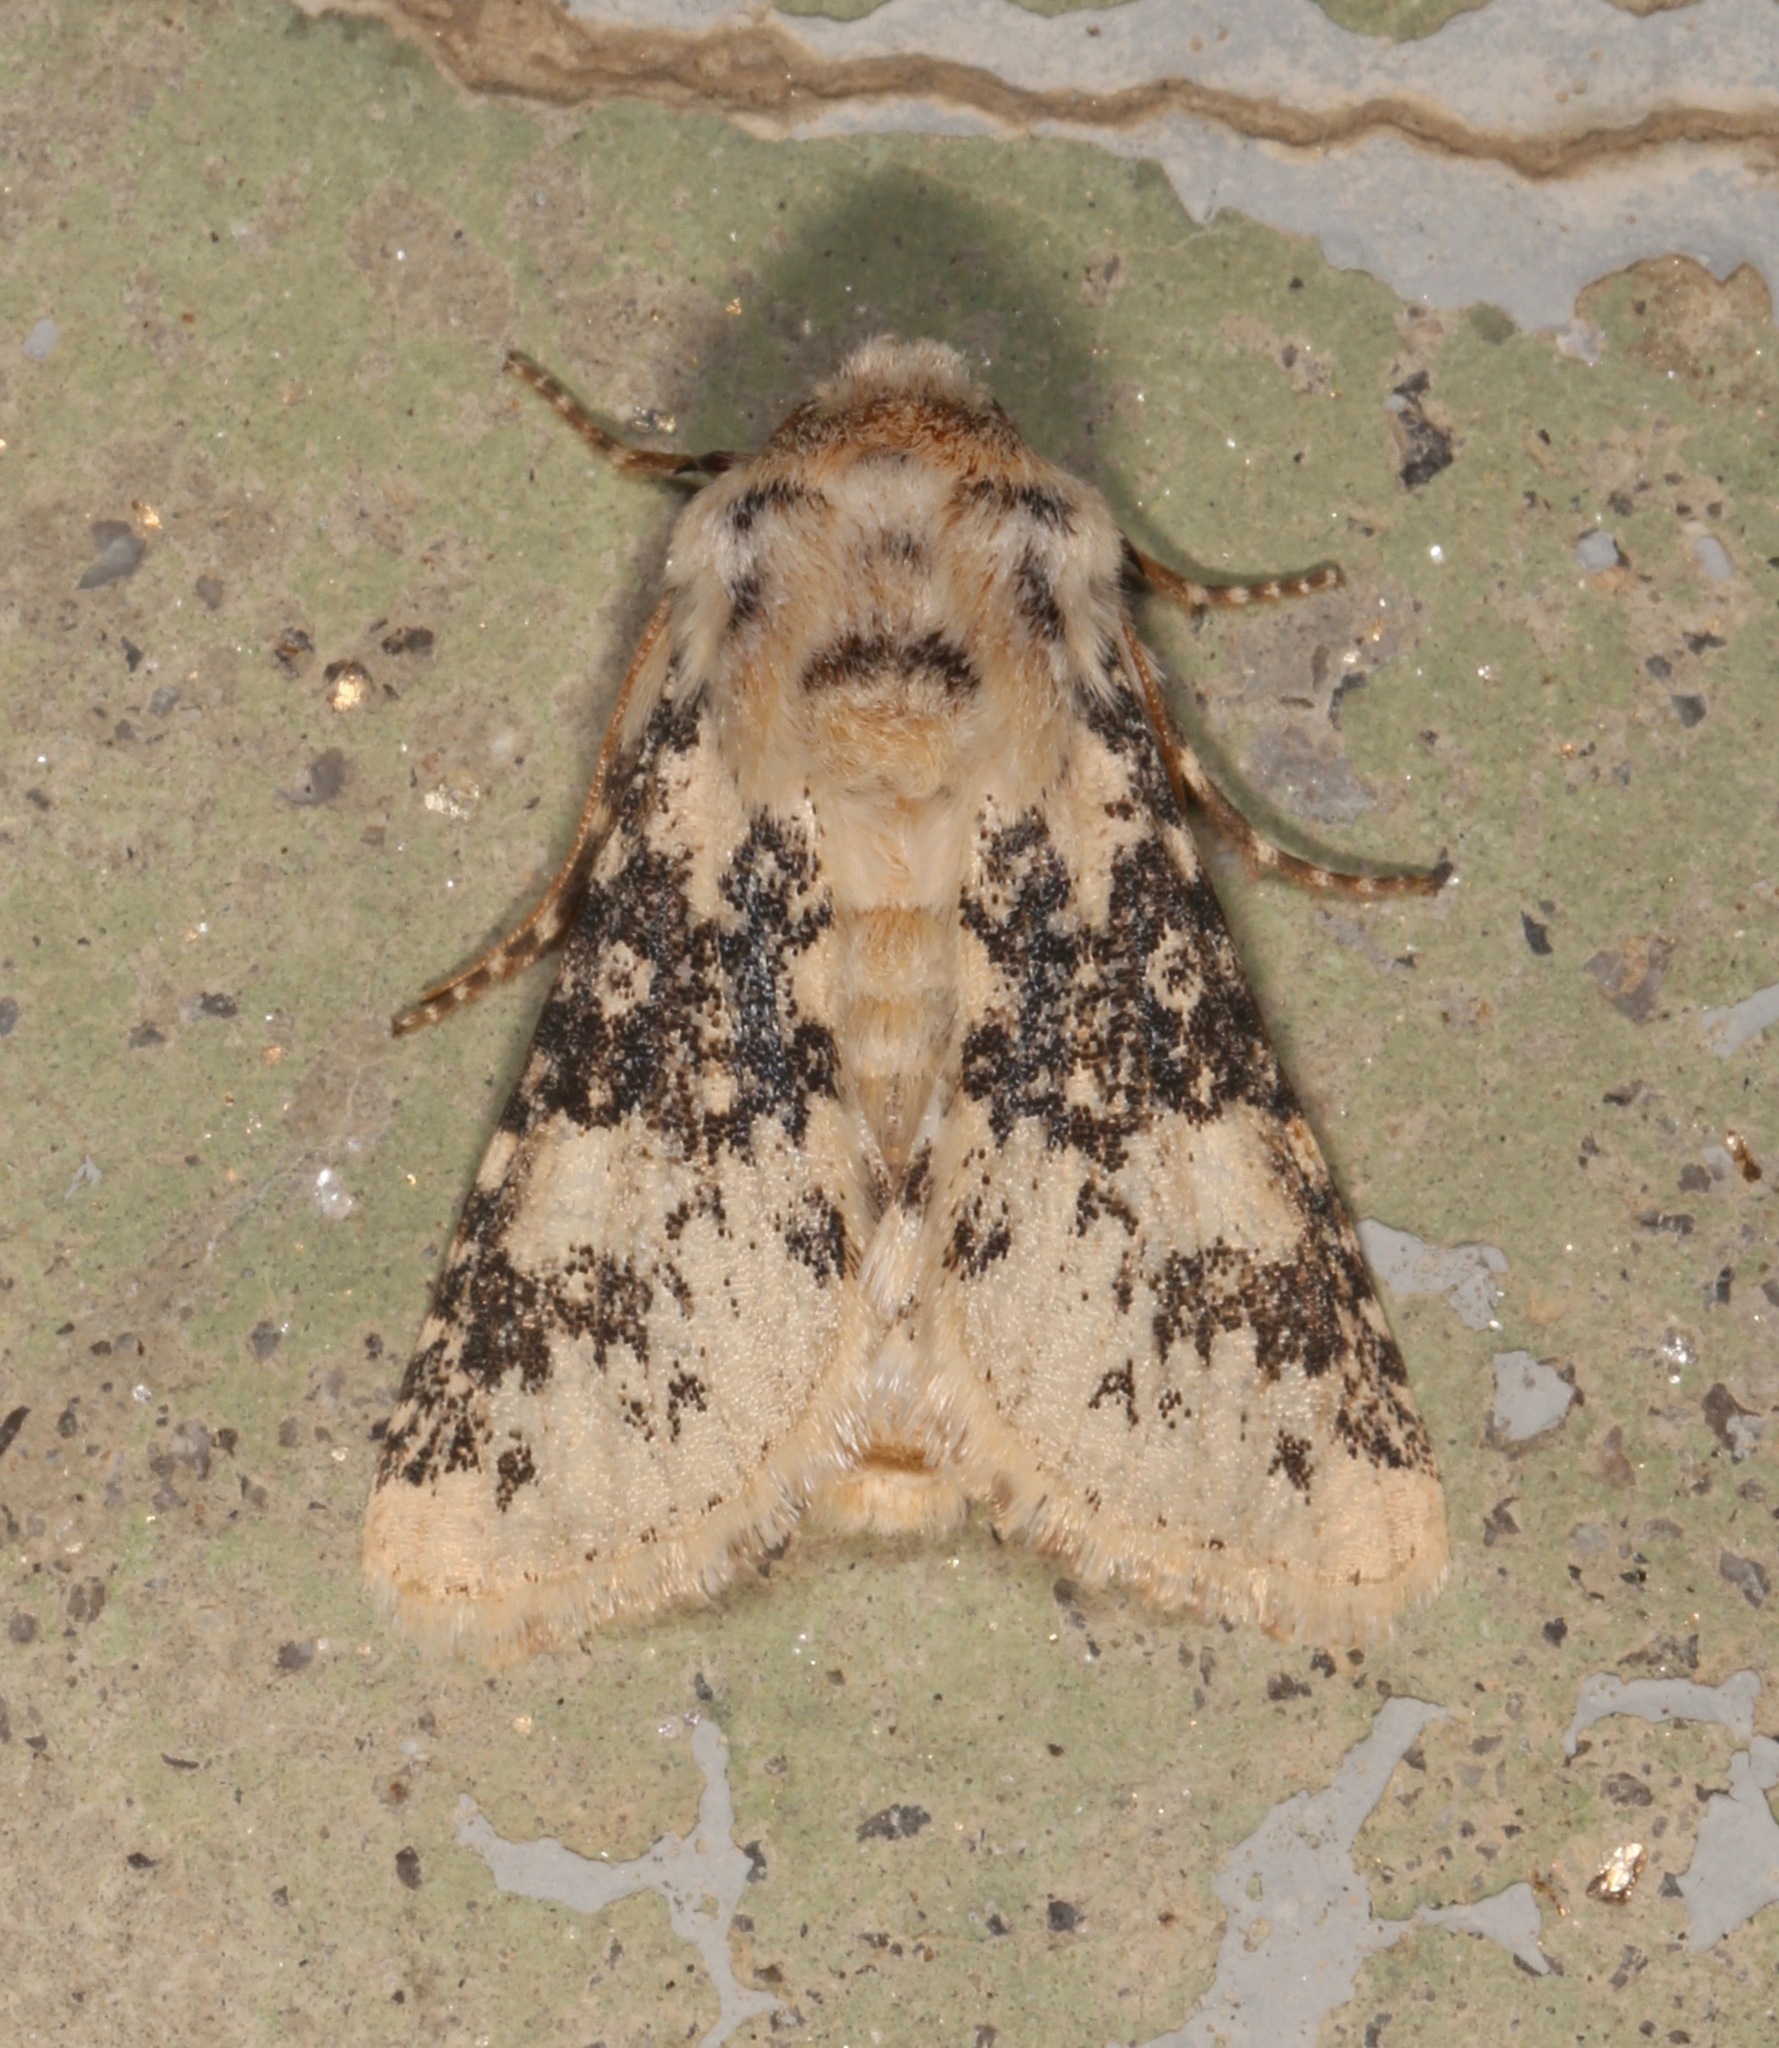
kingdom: Animalia
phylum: Arthropoda
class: Insecta
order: Lepidoptera
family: Noctuidae
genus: Unciella
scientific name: Unciella primula
